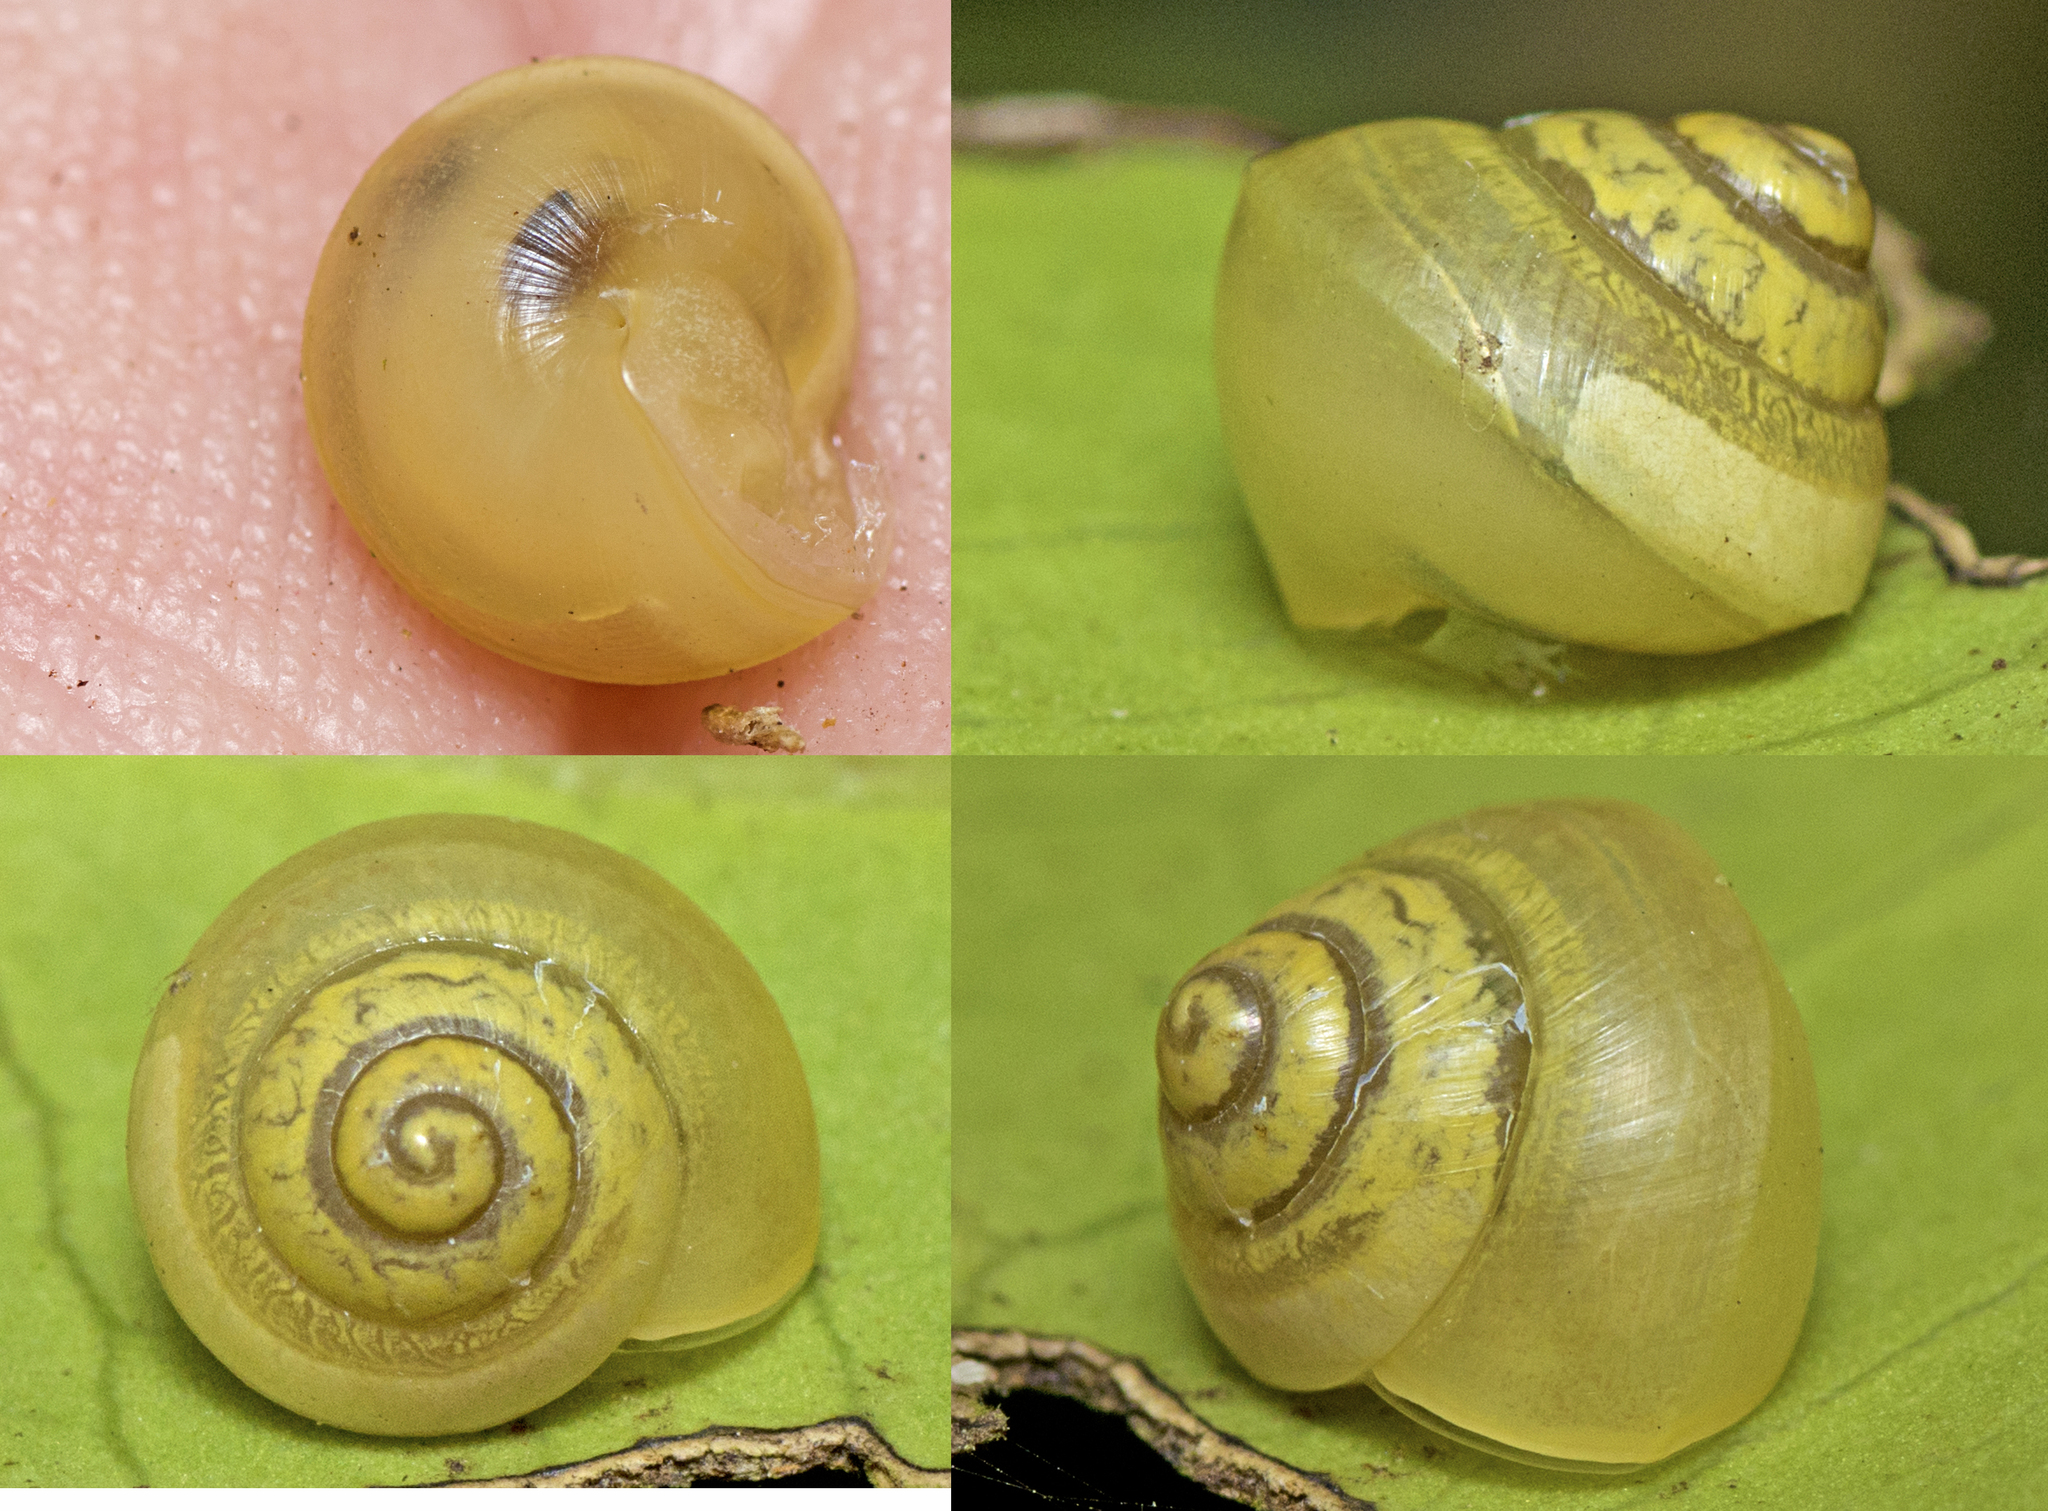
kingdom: Animalia
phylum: Mollusca
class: Gastropoda
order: Stylommatophora
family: Camaenidae
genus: Posorites
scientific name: Posorites conscendens
